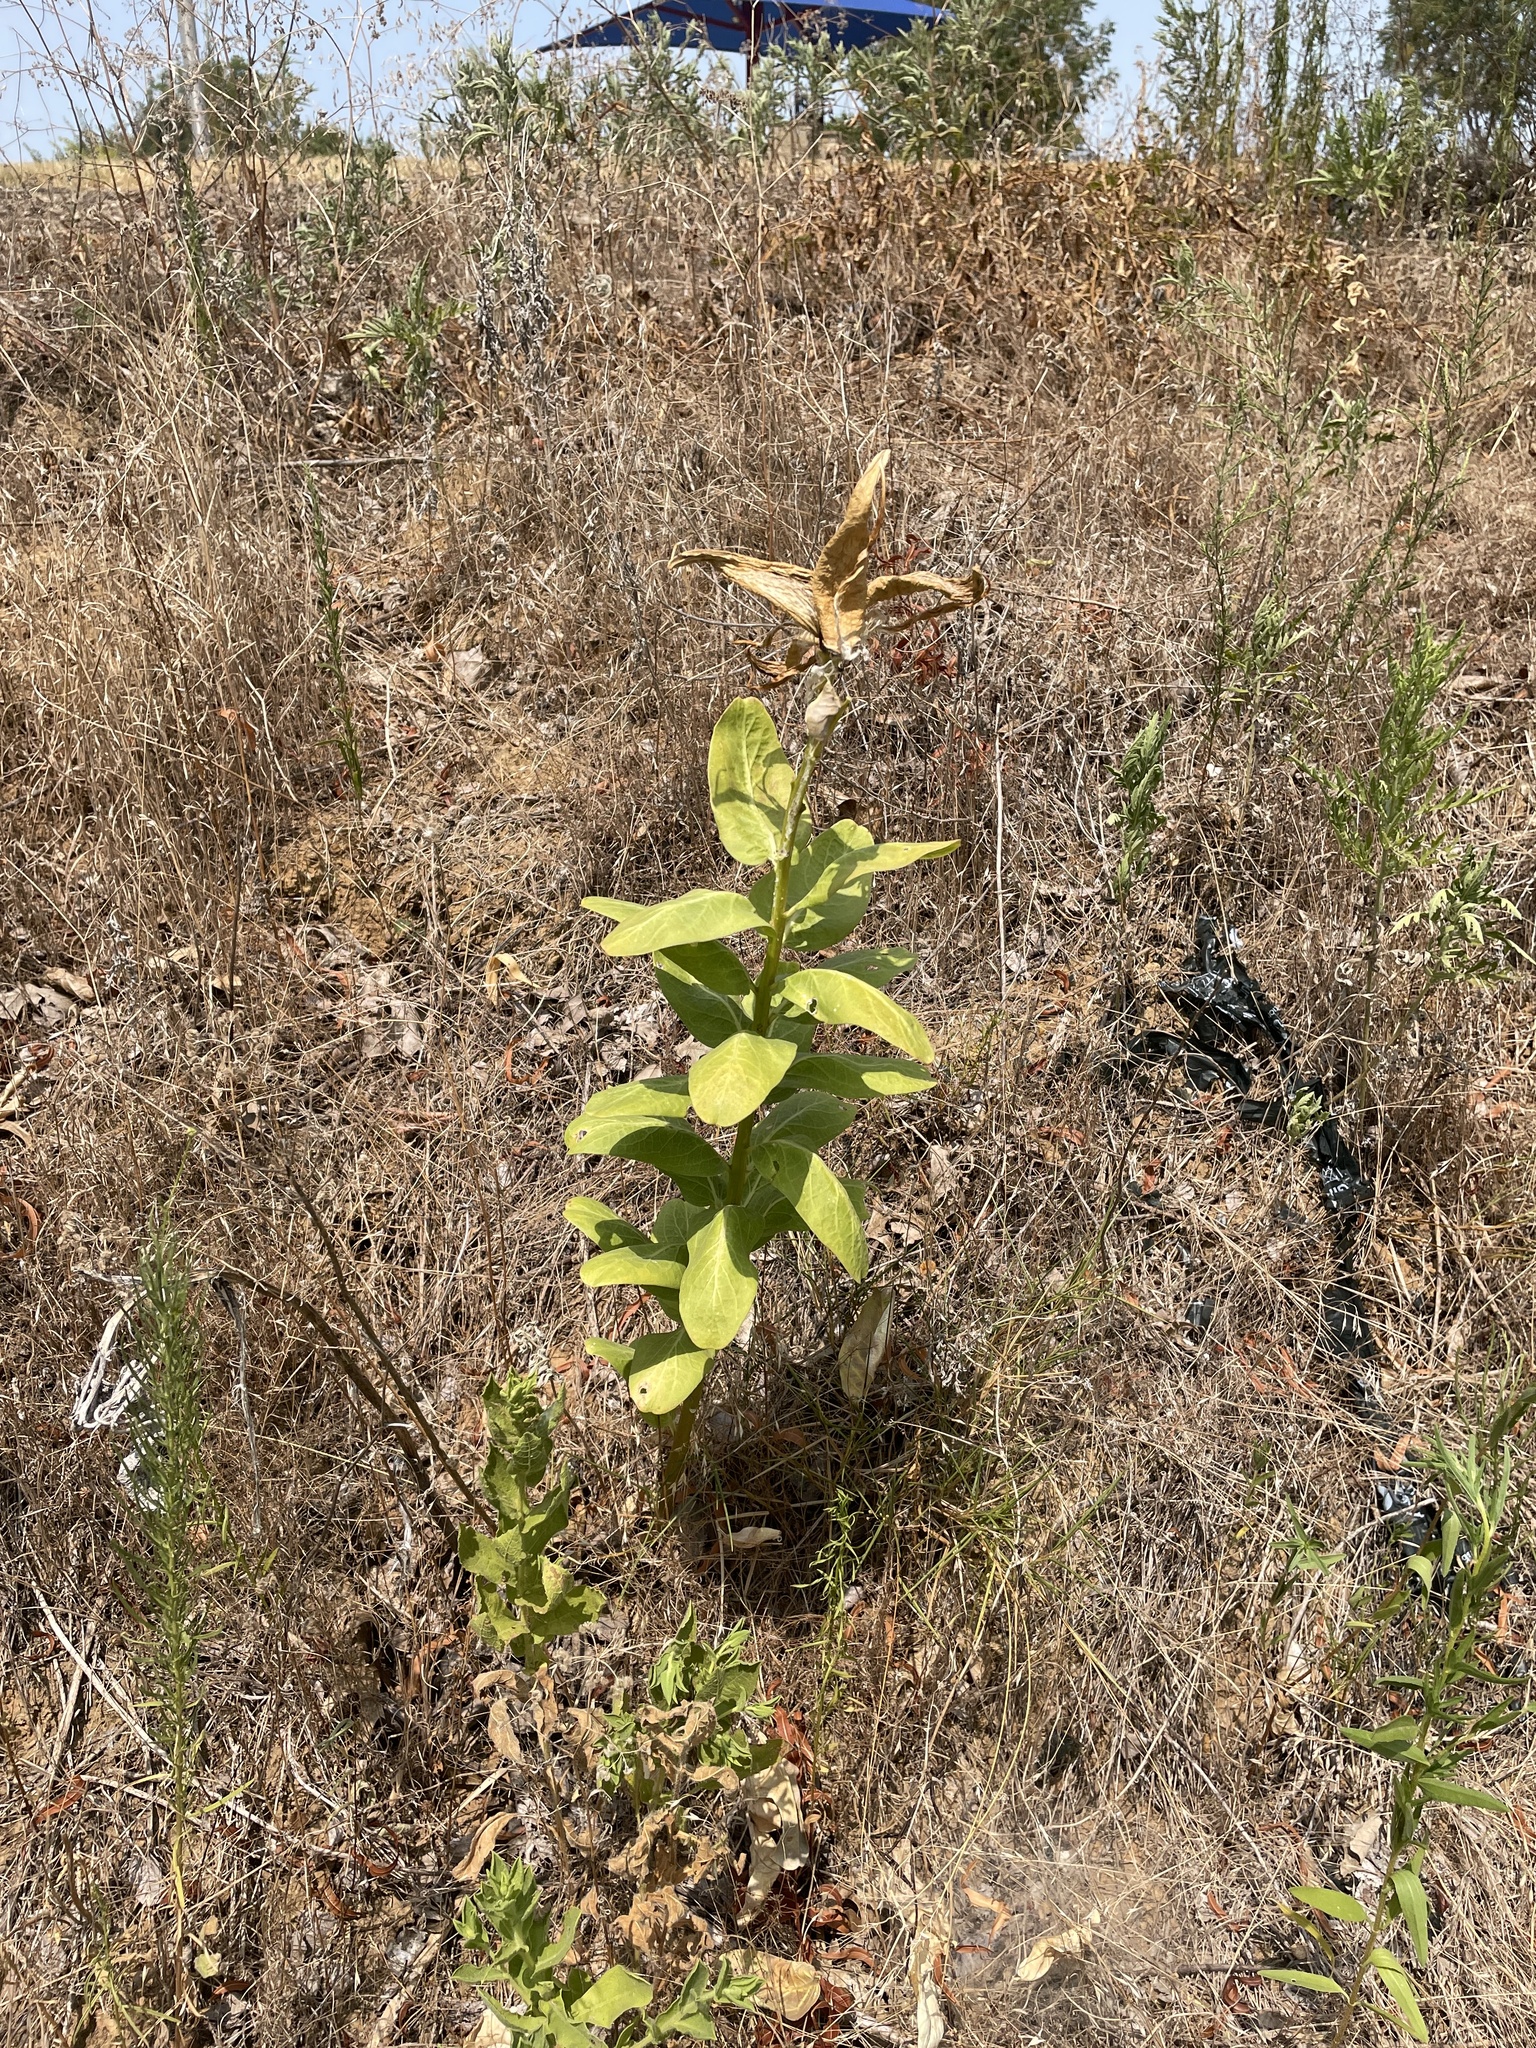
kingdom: Plantae
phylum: Tracheophyta
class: Magnoliopsida
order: Gentianales
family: Apocynaceae
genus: Asclepias
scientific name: Asclepias viridis
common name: Antelope-horns
